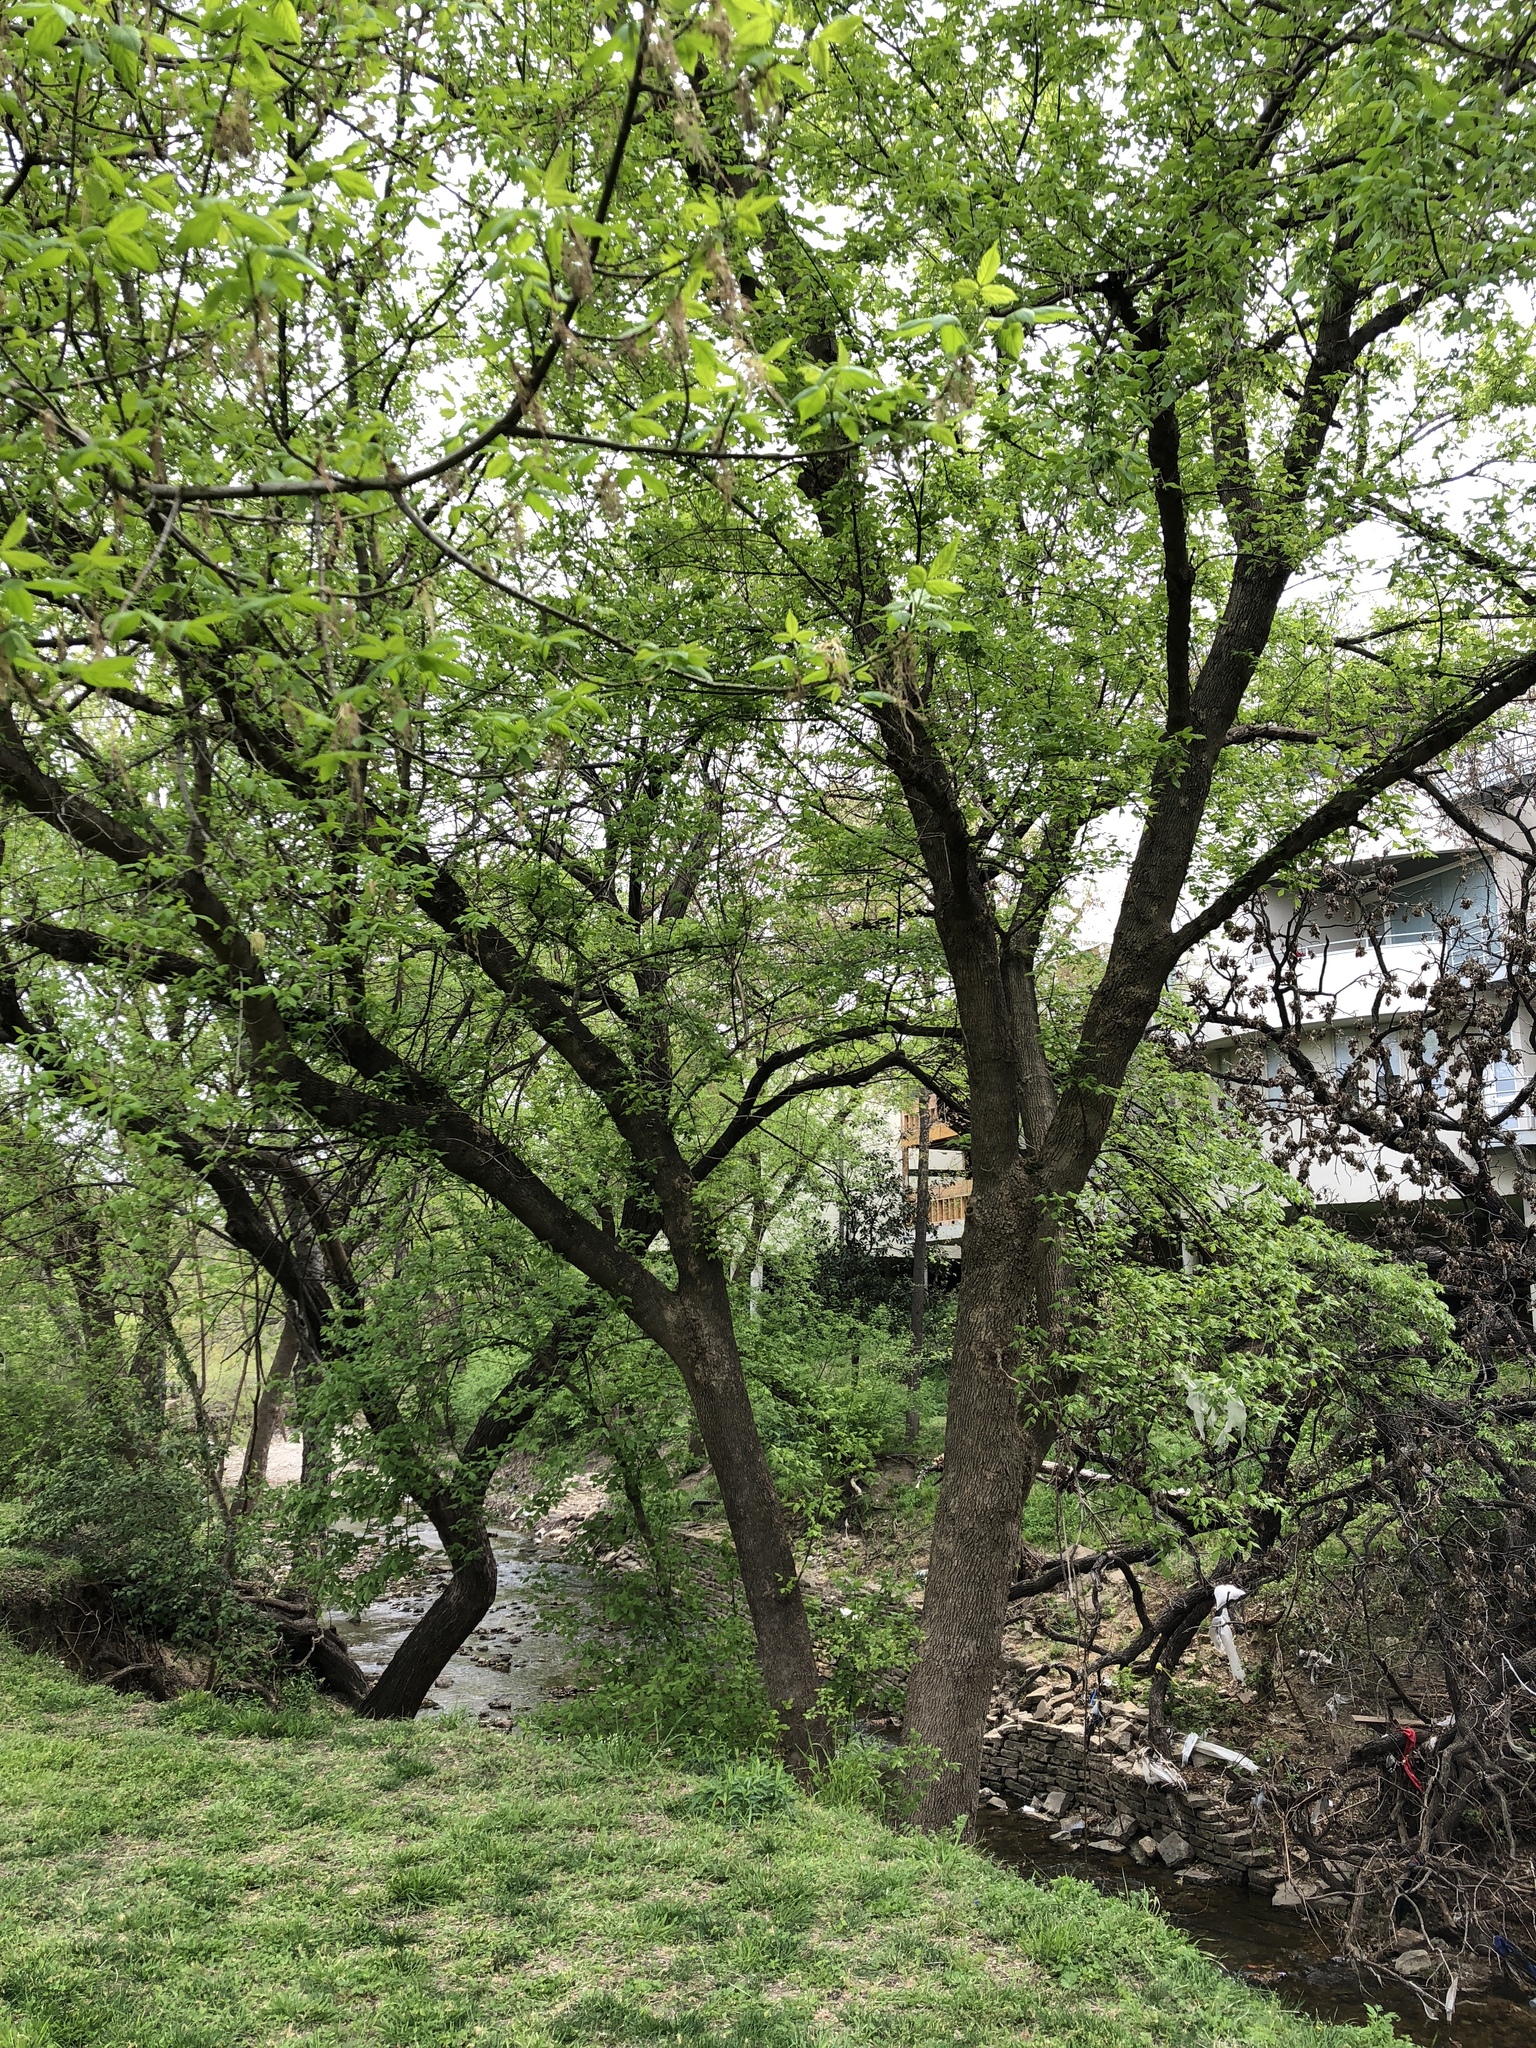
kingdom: Plantae
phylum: Tracheophyta
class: Magnoliopsida
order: Sapindales
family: Sapindaceae
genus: Acer
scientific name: Acer negundo
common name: Ashleaf maple
